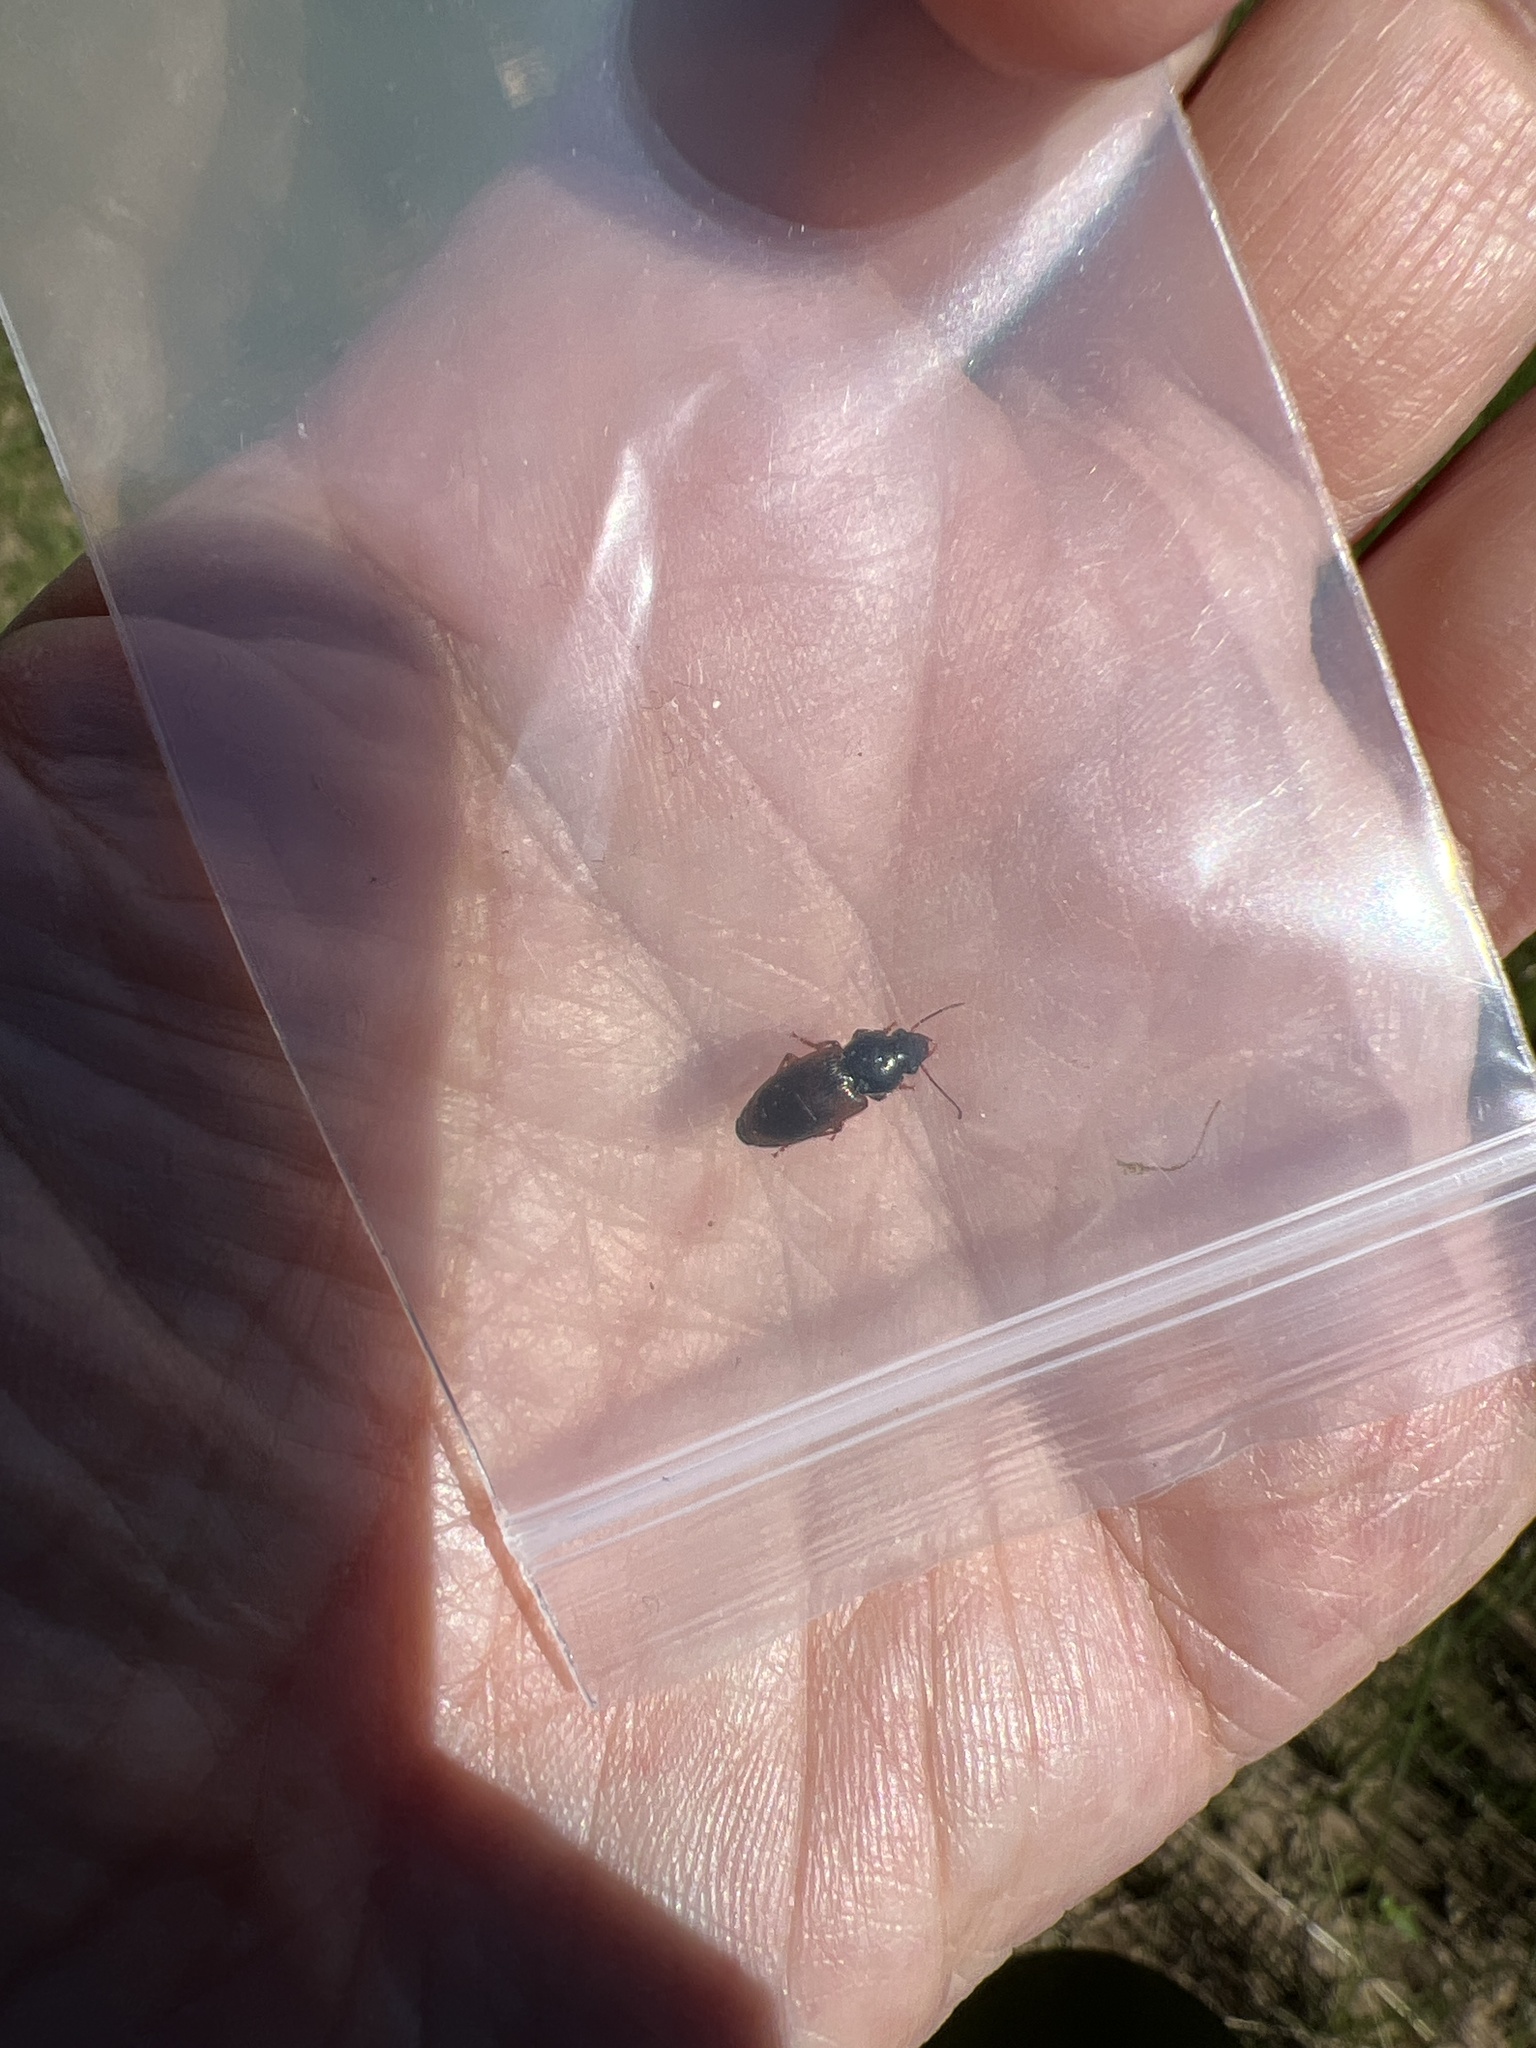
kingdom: Animalia
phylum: Arthropoda
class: Insecta
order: Coleoptera
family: Carabidae
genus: Anisodactylus
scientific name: Anisodactylus sanctaecrucis
